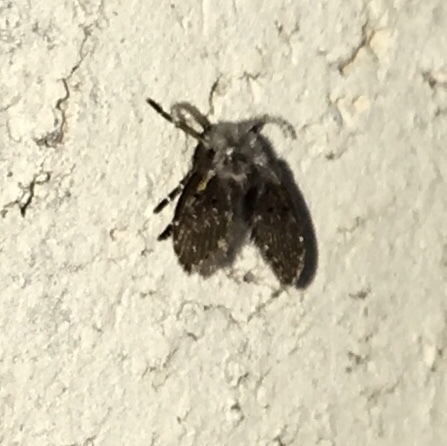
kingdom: Animalia
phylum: Arthropoda
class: Insecta
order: Diptera
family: Psychodidae
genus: Clogmia
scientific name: Clogmia albipunctatus
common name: White-spotted moth fly
